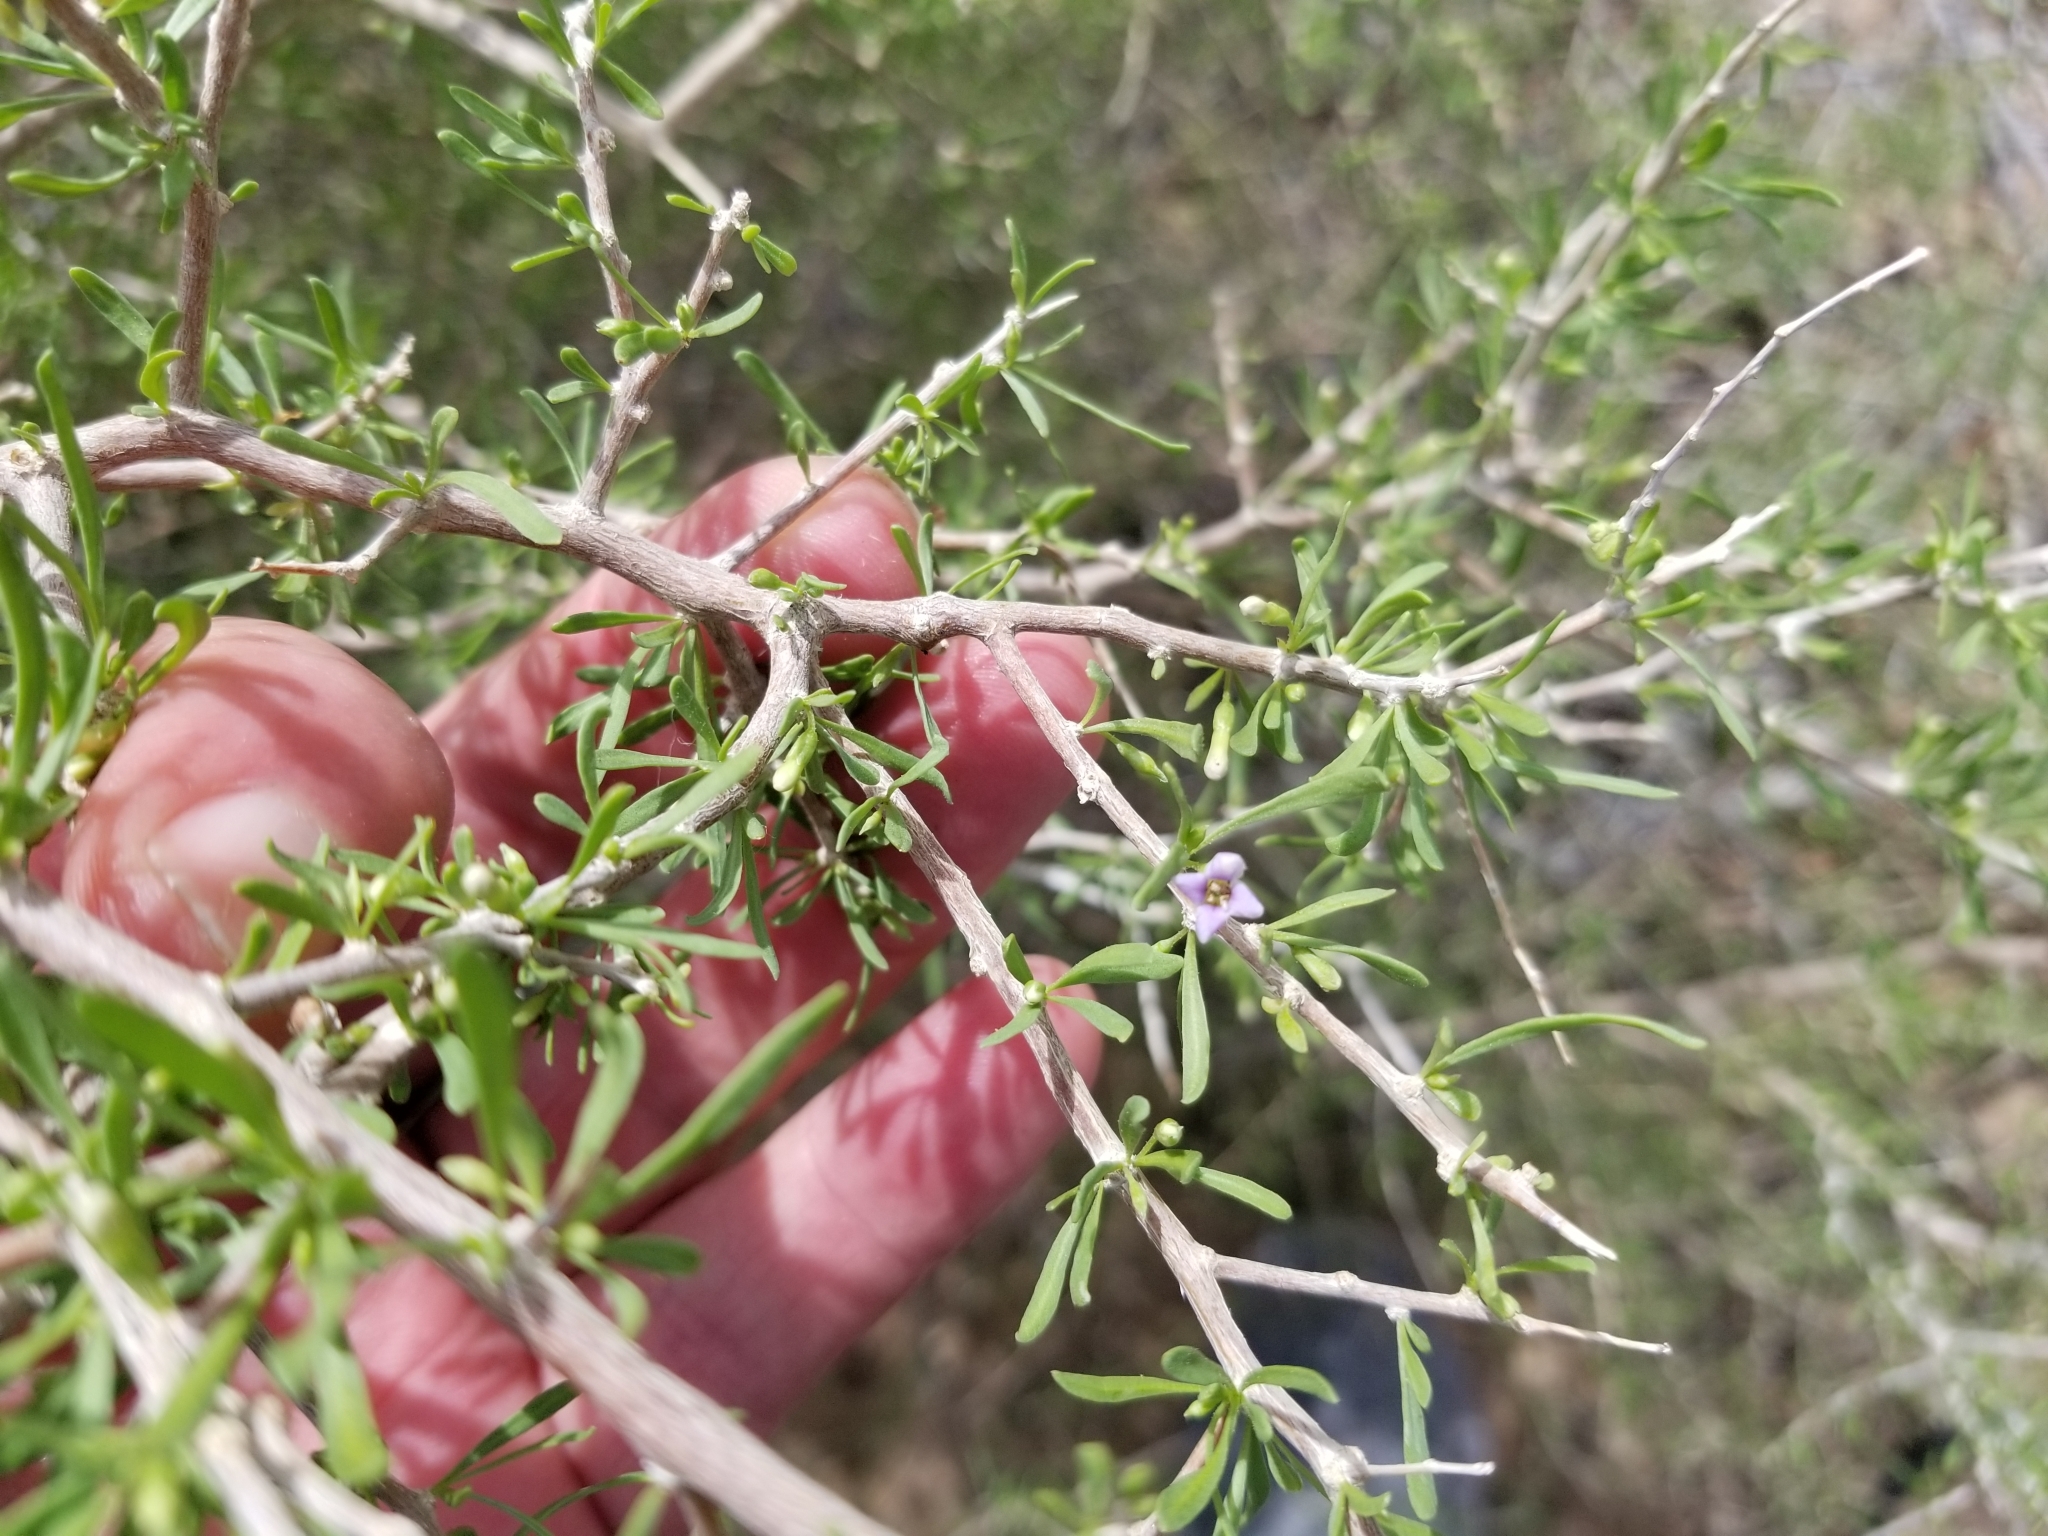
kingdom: Plantae
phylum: Tracheophyta
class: Magnoliopsida
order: Solanales
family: Solanaceae
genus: Lycium
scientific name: Lycium andersonii
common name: Water-jacket
